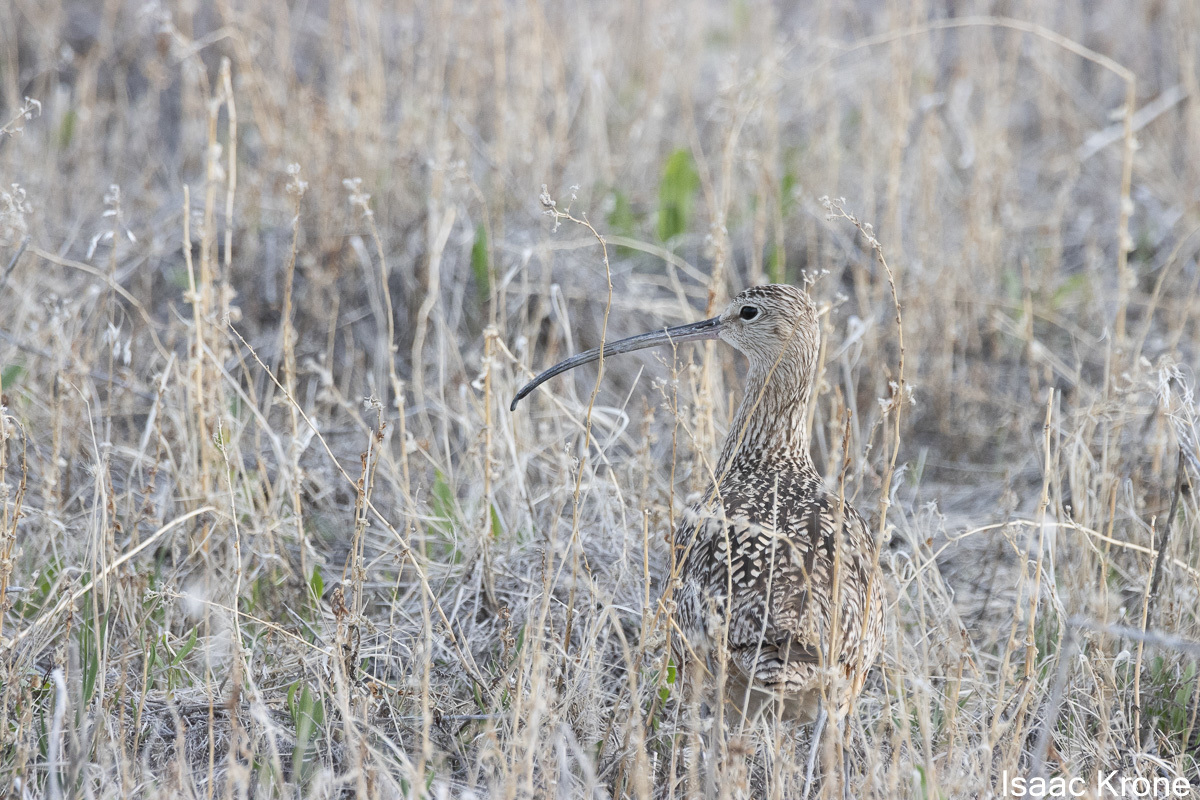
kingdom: Animalia
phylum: Chordata
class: Aves
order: Charadriiformes
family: Scolopacidae
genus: Numenius
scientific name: Numenius americanus
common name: Long-billed curlew
